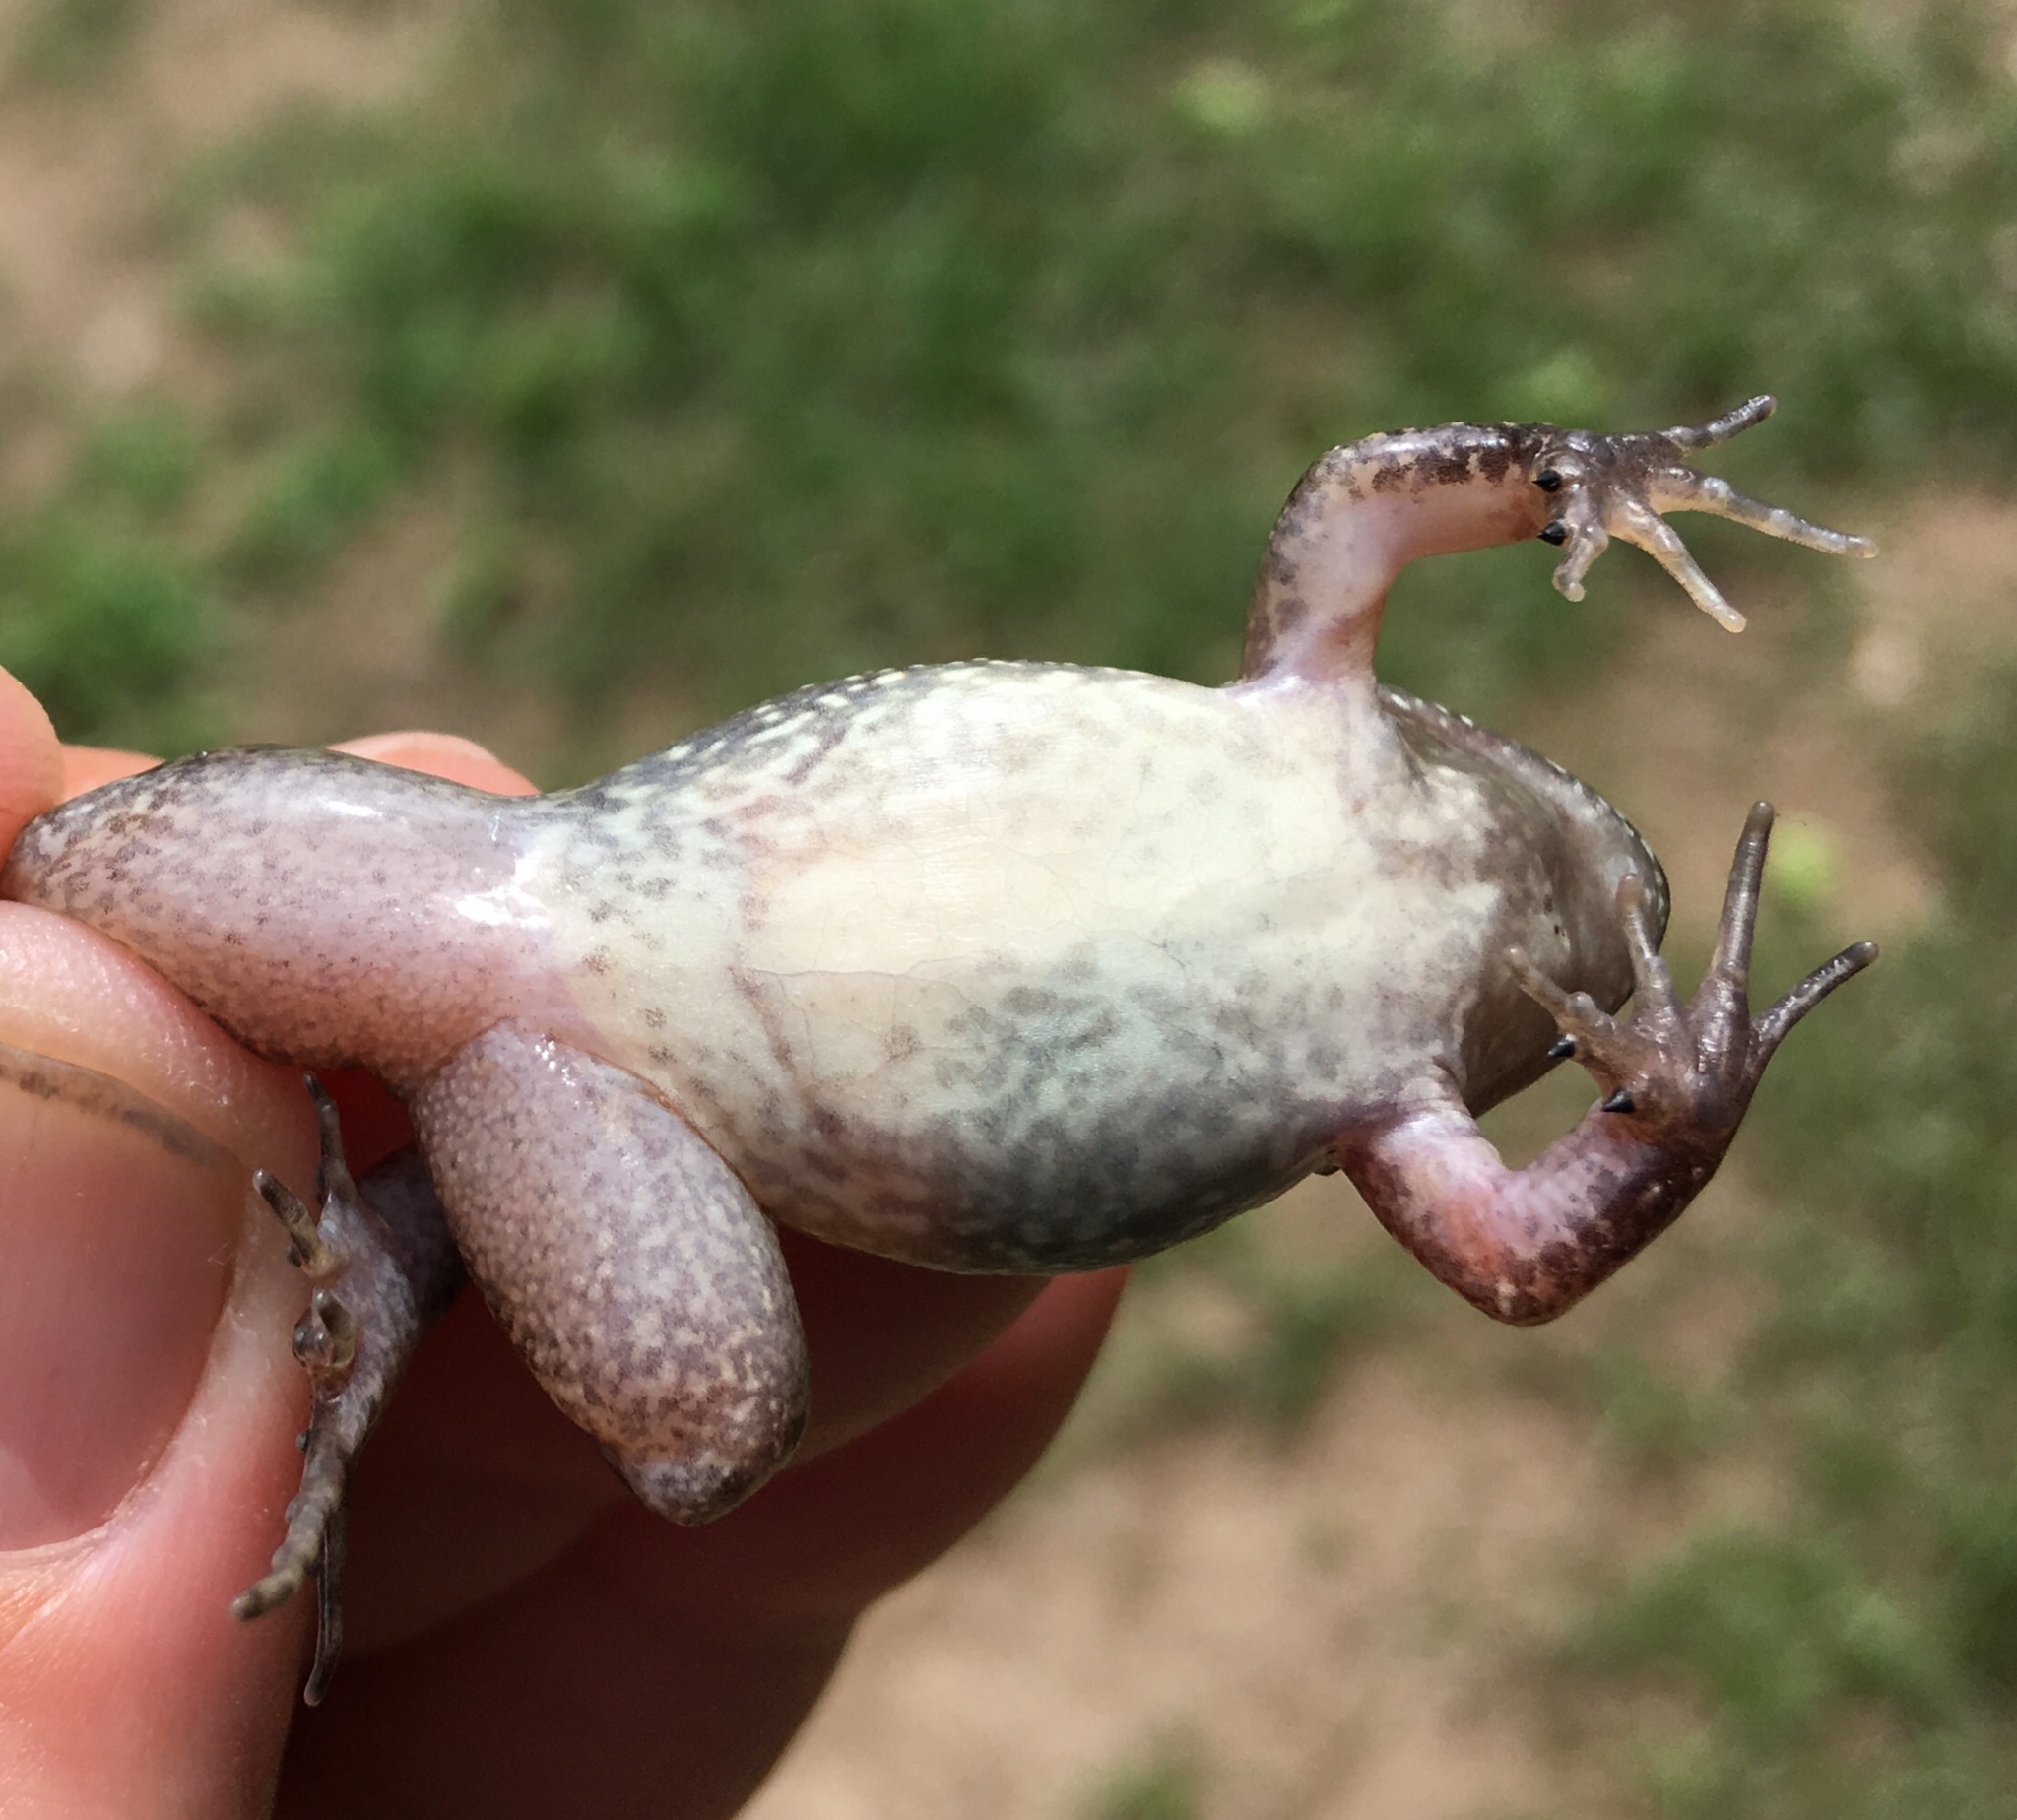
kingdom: Animalia
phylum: Chordata
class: Amphibia
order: Anura
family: Leptodactylidae
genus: Leptodactylus
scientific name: Leptodactylus melanonotus
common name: Fringe-toed foamfrog
